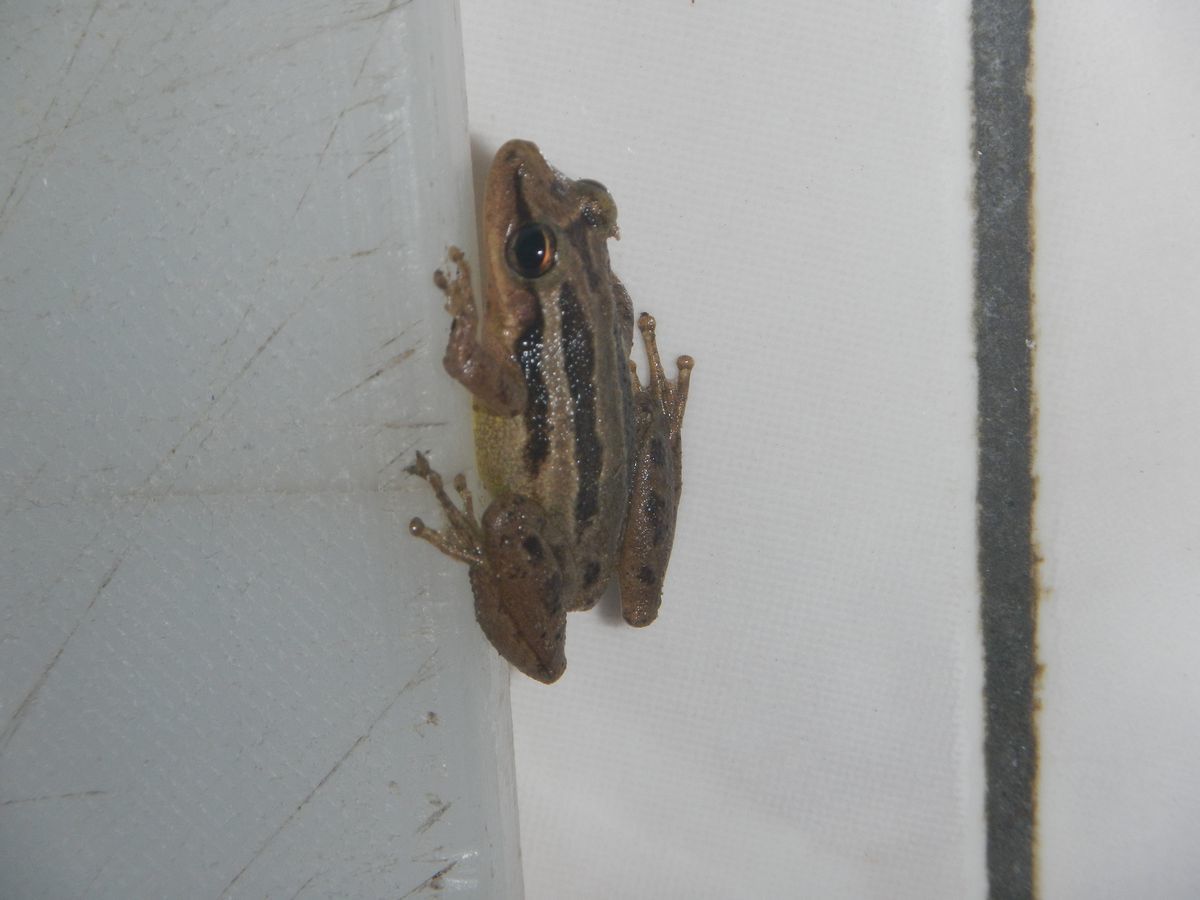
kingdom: Animalia
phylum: Chordata
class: Amphibia
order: Anura
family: Hylidae
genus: Scinax
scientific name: Scinax ruber
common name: Red snouted treefrog
